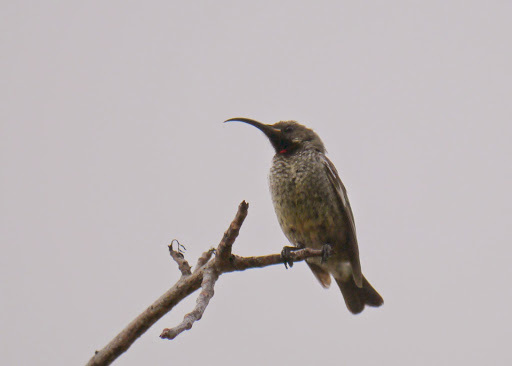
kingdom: Animalia
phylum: Chordata
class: Aves
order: Passeriformes
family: Nectariniidae
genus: Chalcomitra
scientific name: Chalcomitra senegalensis
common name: Scarlet-chested sunbird
